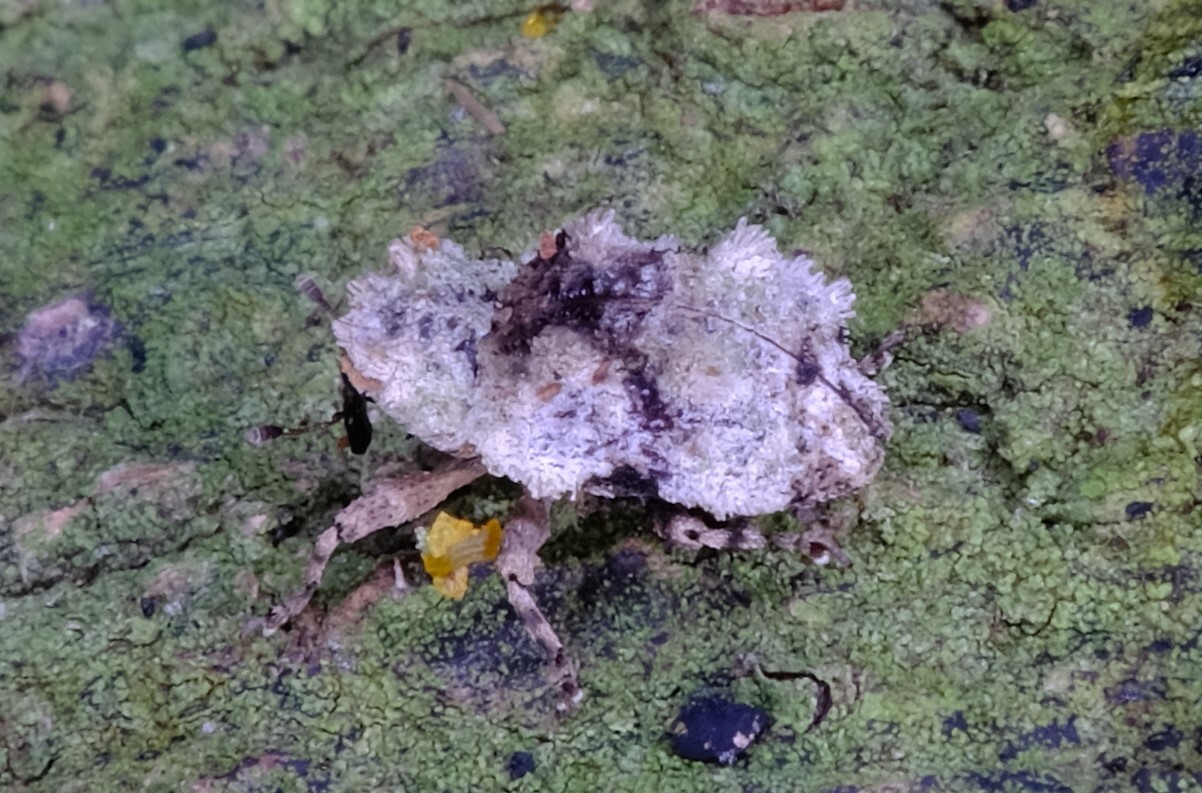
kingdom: Animalia
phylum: Arthropoda
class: Insecta
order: Coleoptera
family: Curculionidae
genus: Chimades
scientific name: Chimades lanosus
